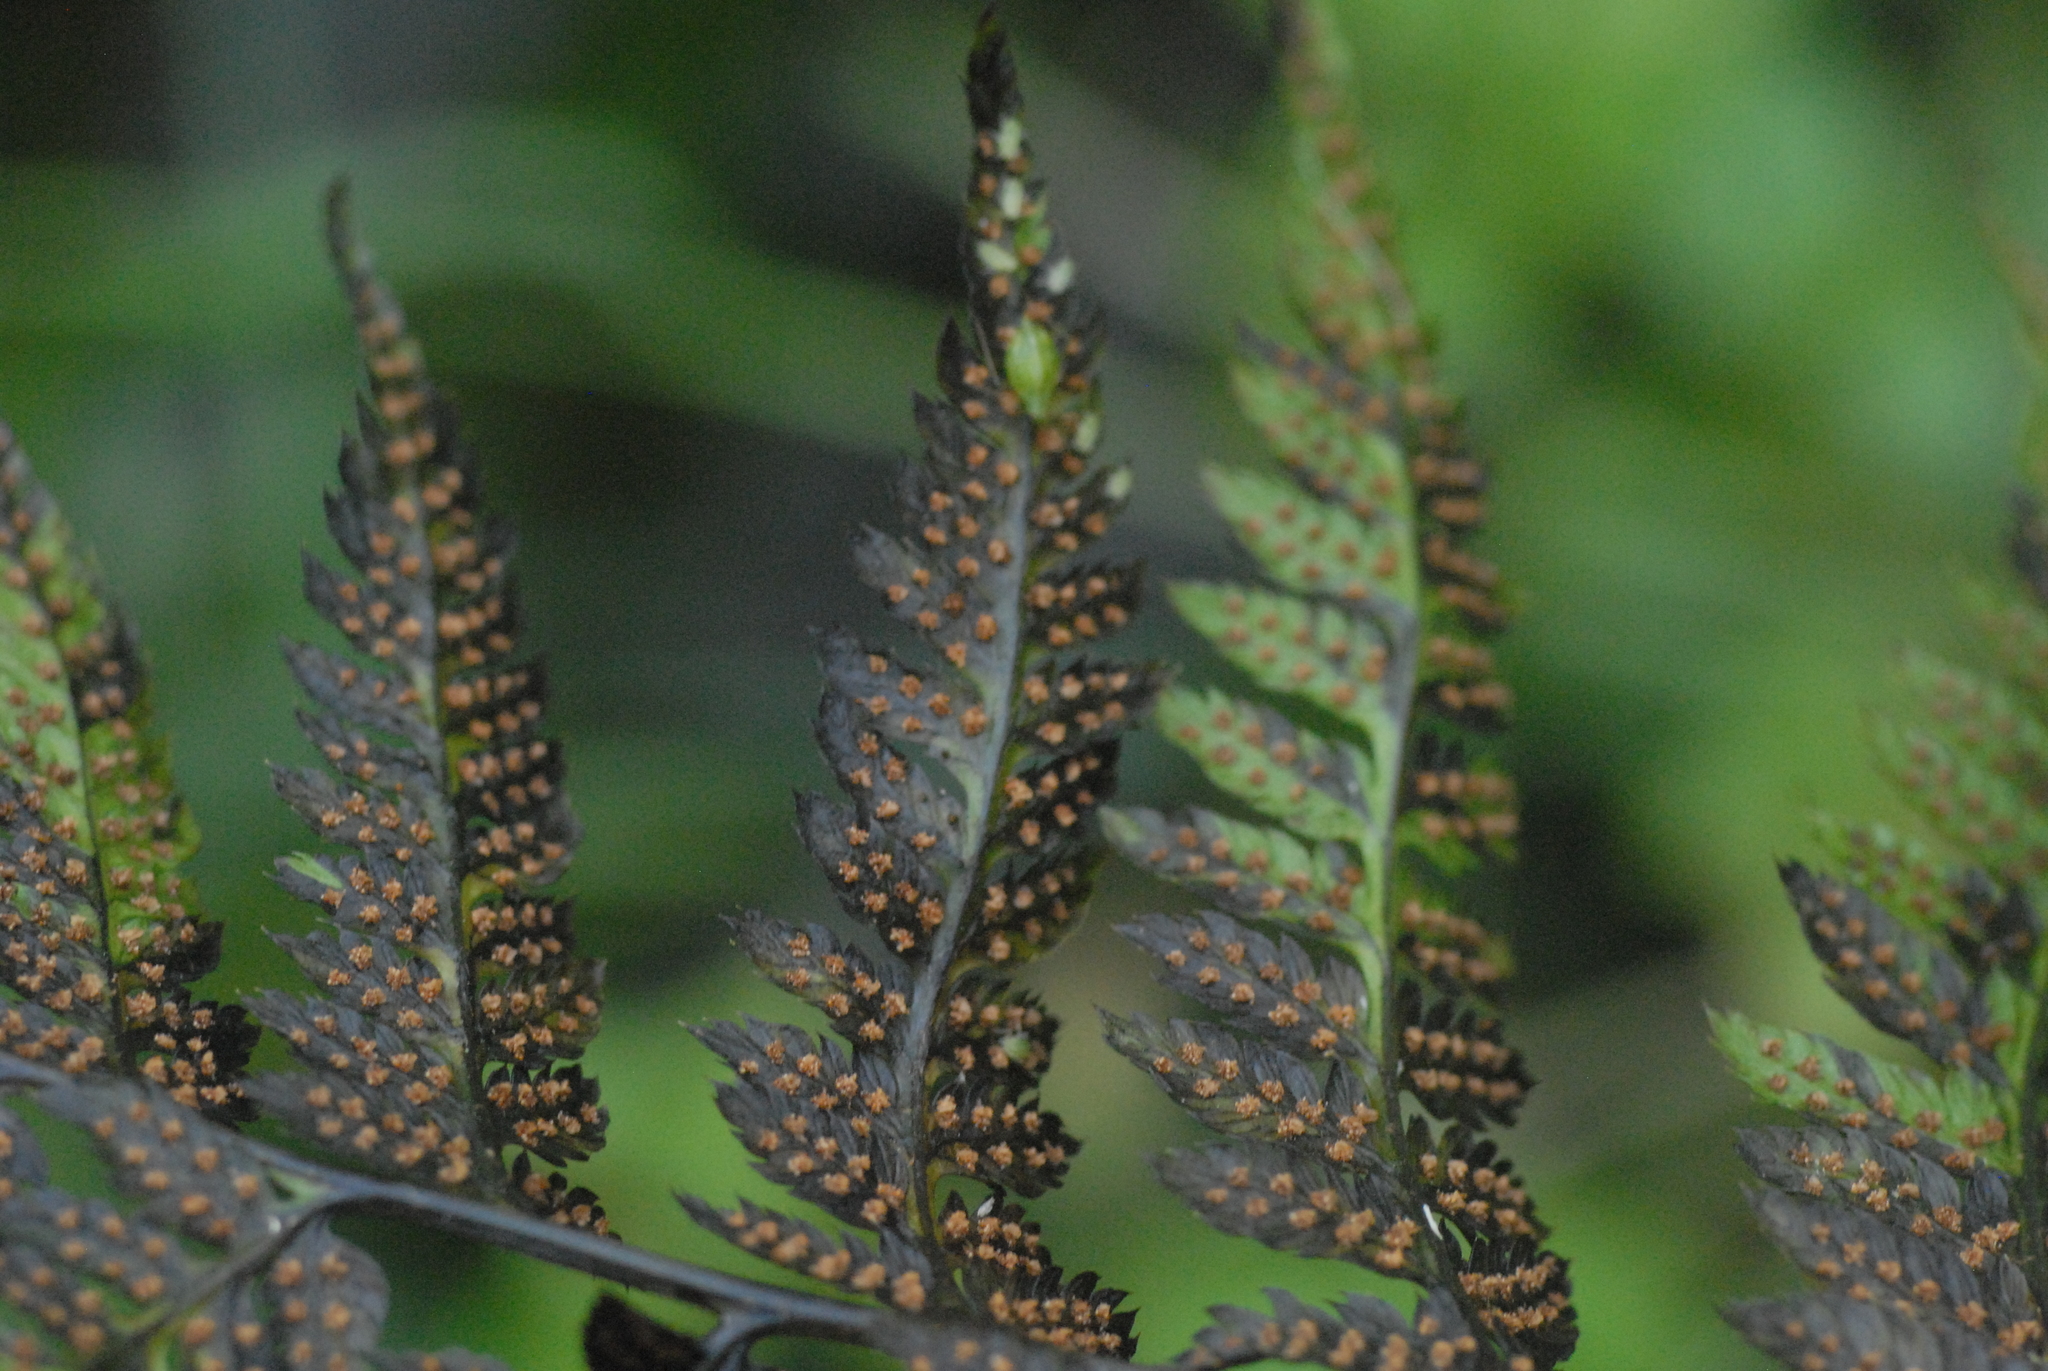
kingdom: Plantae
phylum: Tracheophyta
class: Polypodiopsida
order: Polypodiales
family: Dryopteridaceae
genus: Dryopteris
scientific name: Dryopteris carthusiana
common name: Narrow buckler-fern
